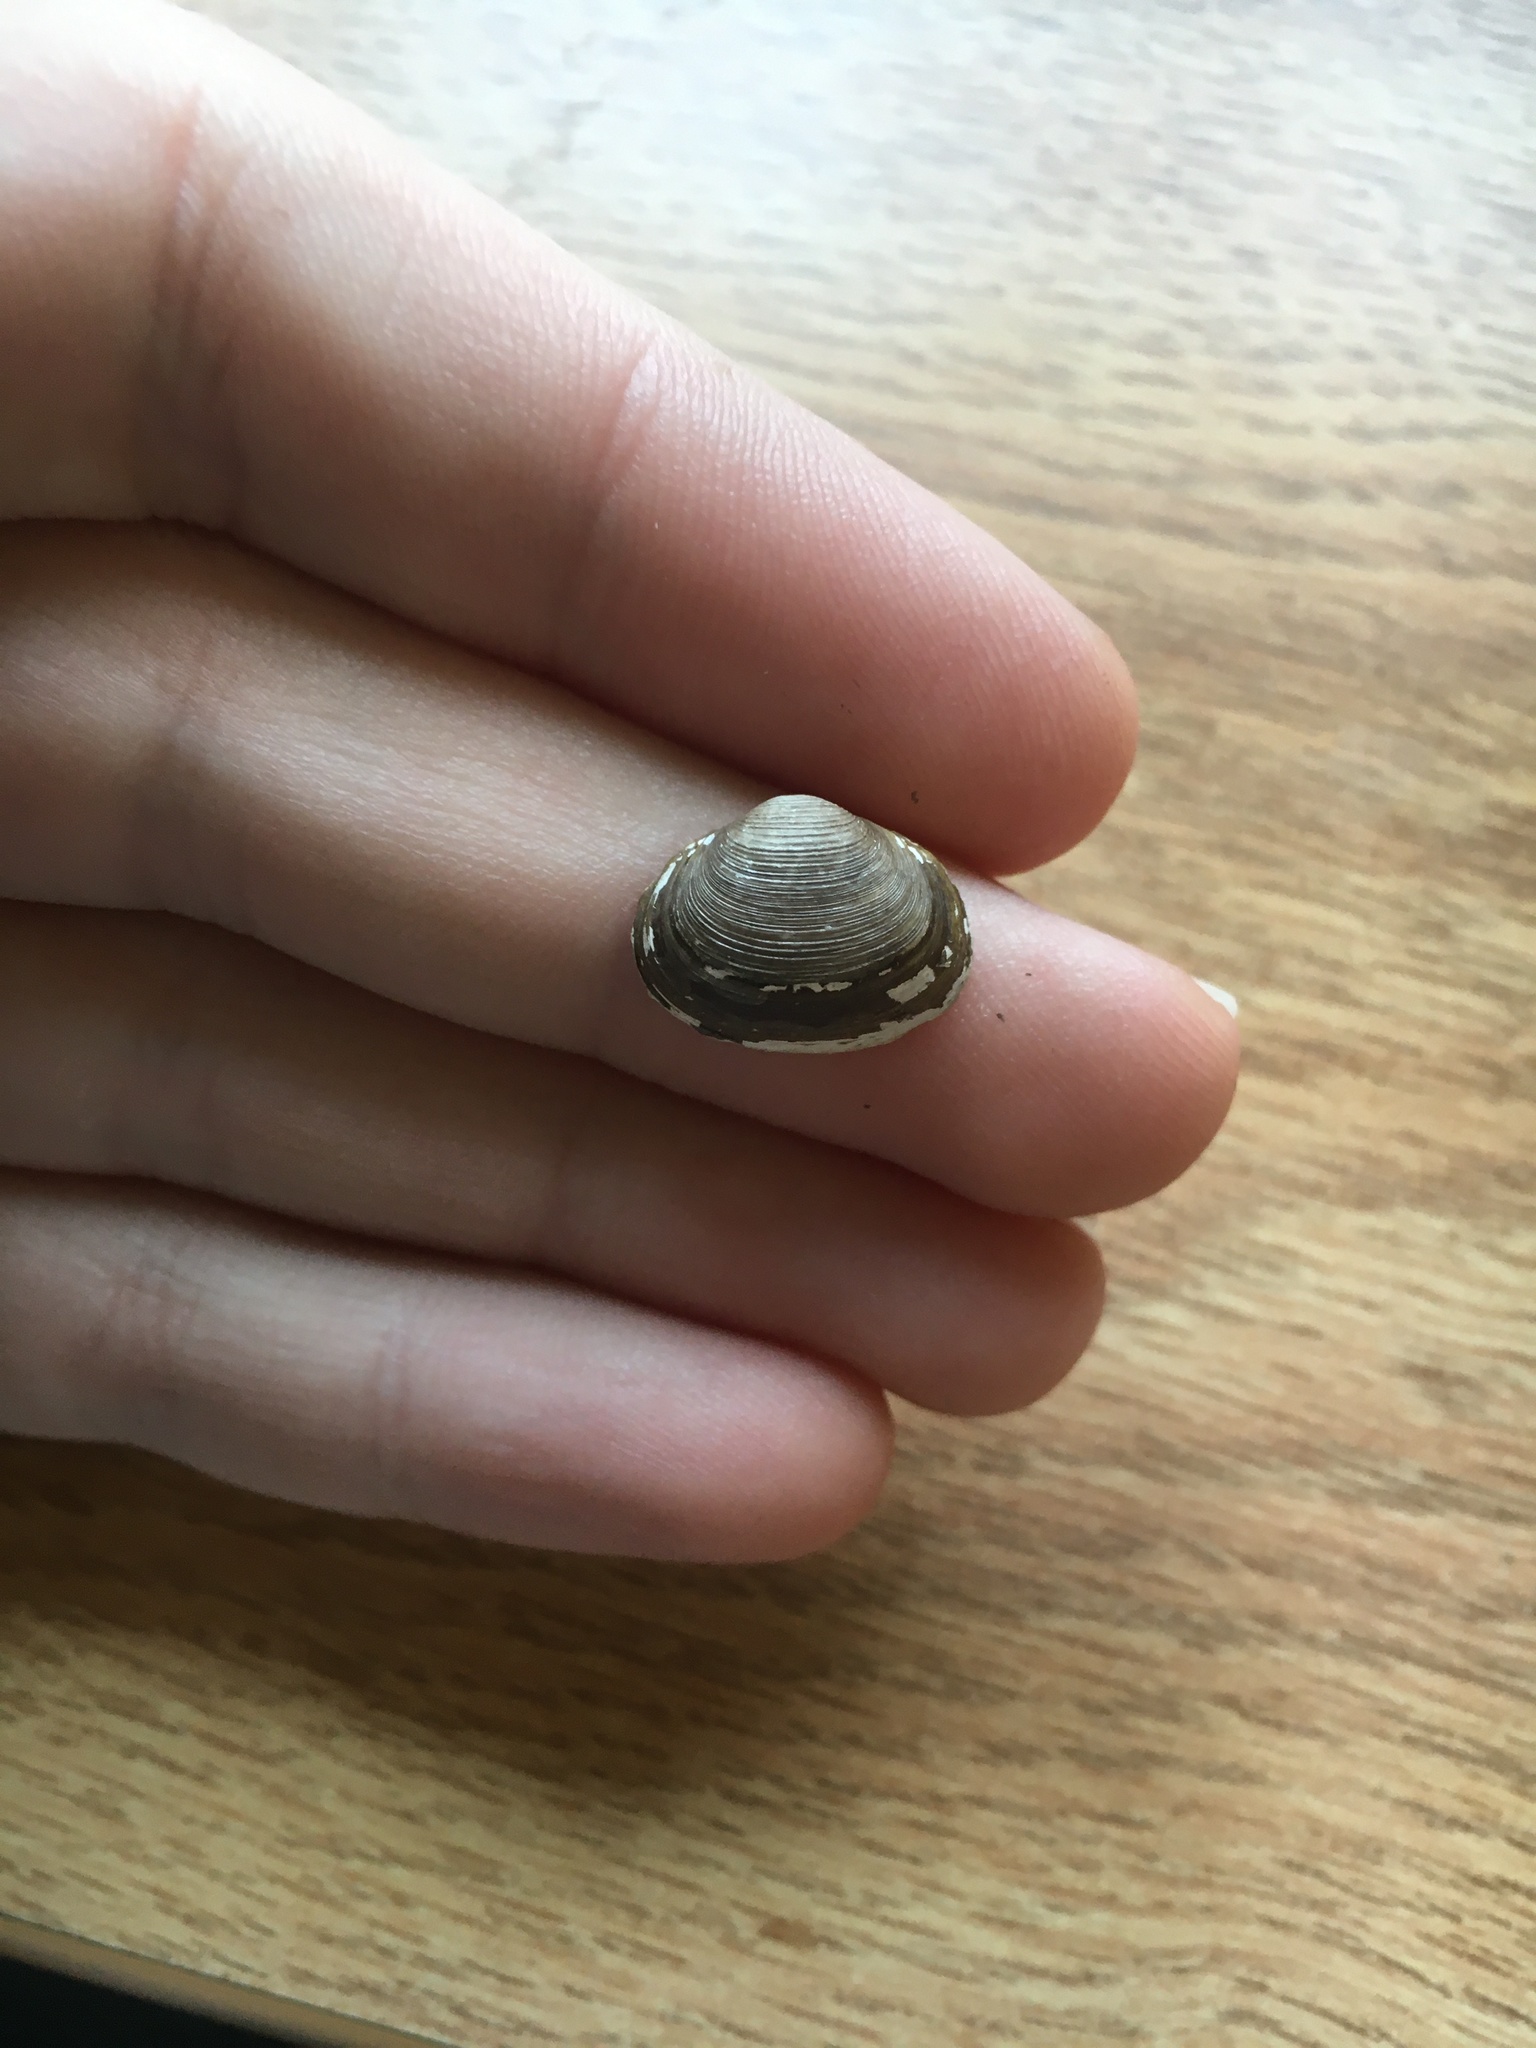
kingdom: Animalia
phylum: Mollusca
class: Bivalvia
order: Sphaeriida
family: Sphaeriidae
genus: Sphaerium
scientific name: Sphaerium striatinum
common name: Striated fingernailclam
